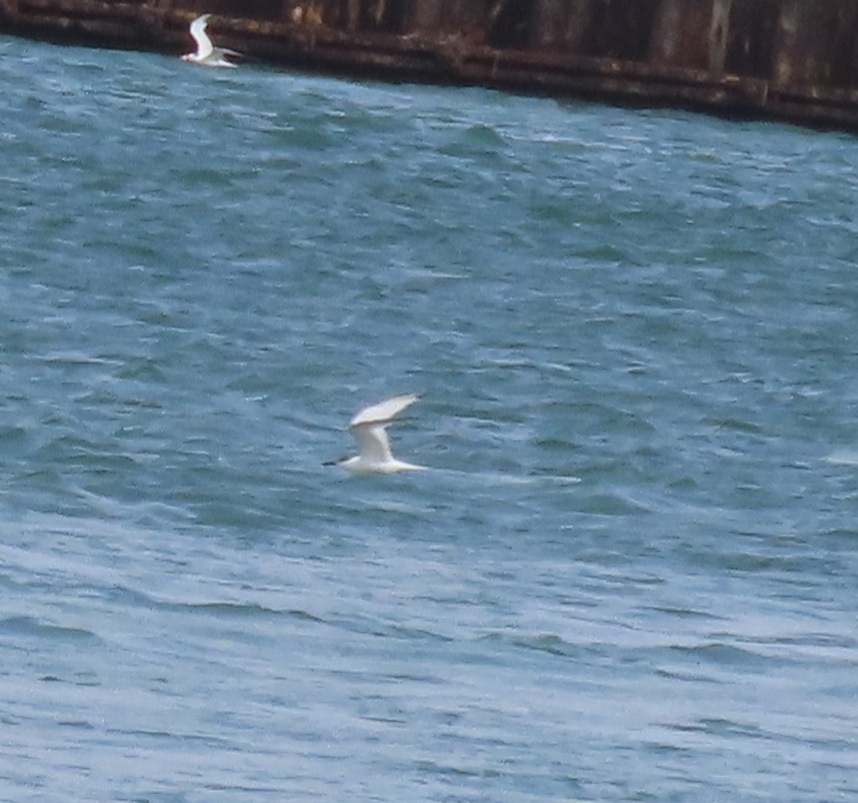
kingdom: Animalia
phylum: Chordata
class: Aves
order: Charadriiformes
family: Laridae
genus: Thalasseus
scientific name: Thalasseus sandvicensis
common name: Sandwich tern
